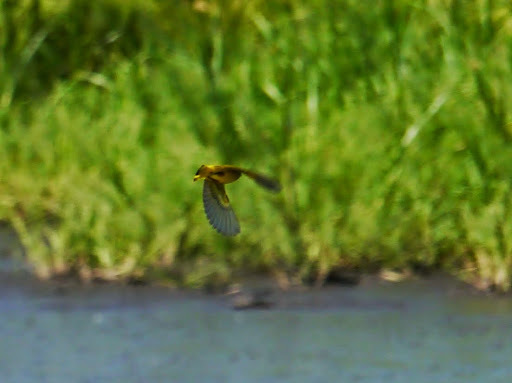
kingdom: Animalia
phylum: Chordata
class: Aves
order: Passeriformes
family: Parulidae
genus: Setophaga
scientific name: Setophaga petechia
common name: Yellow warbler
